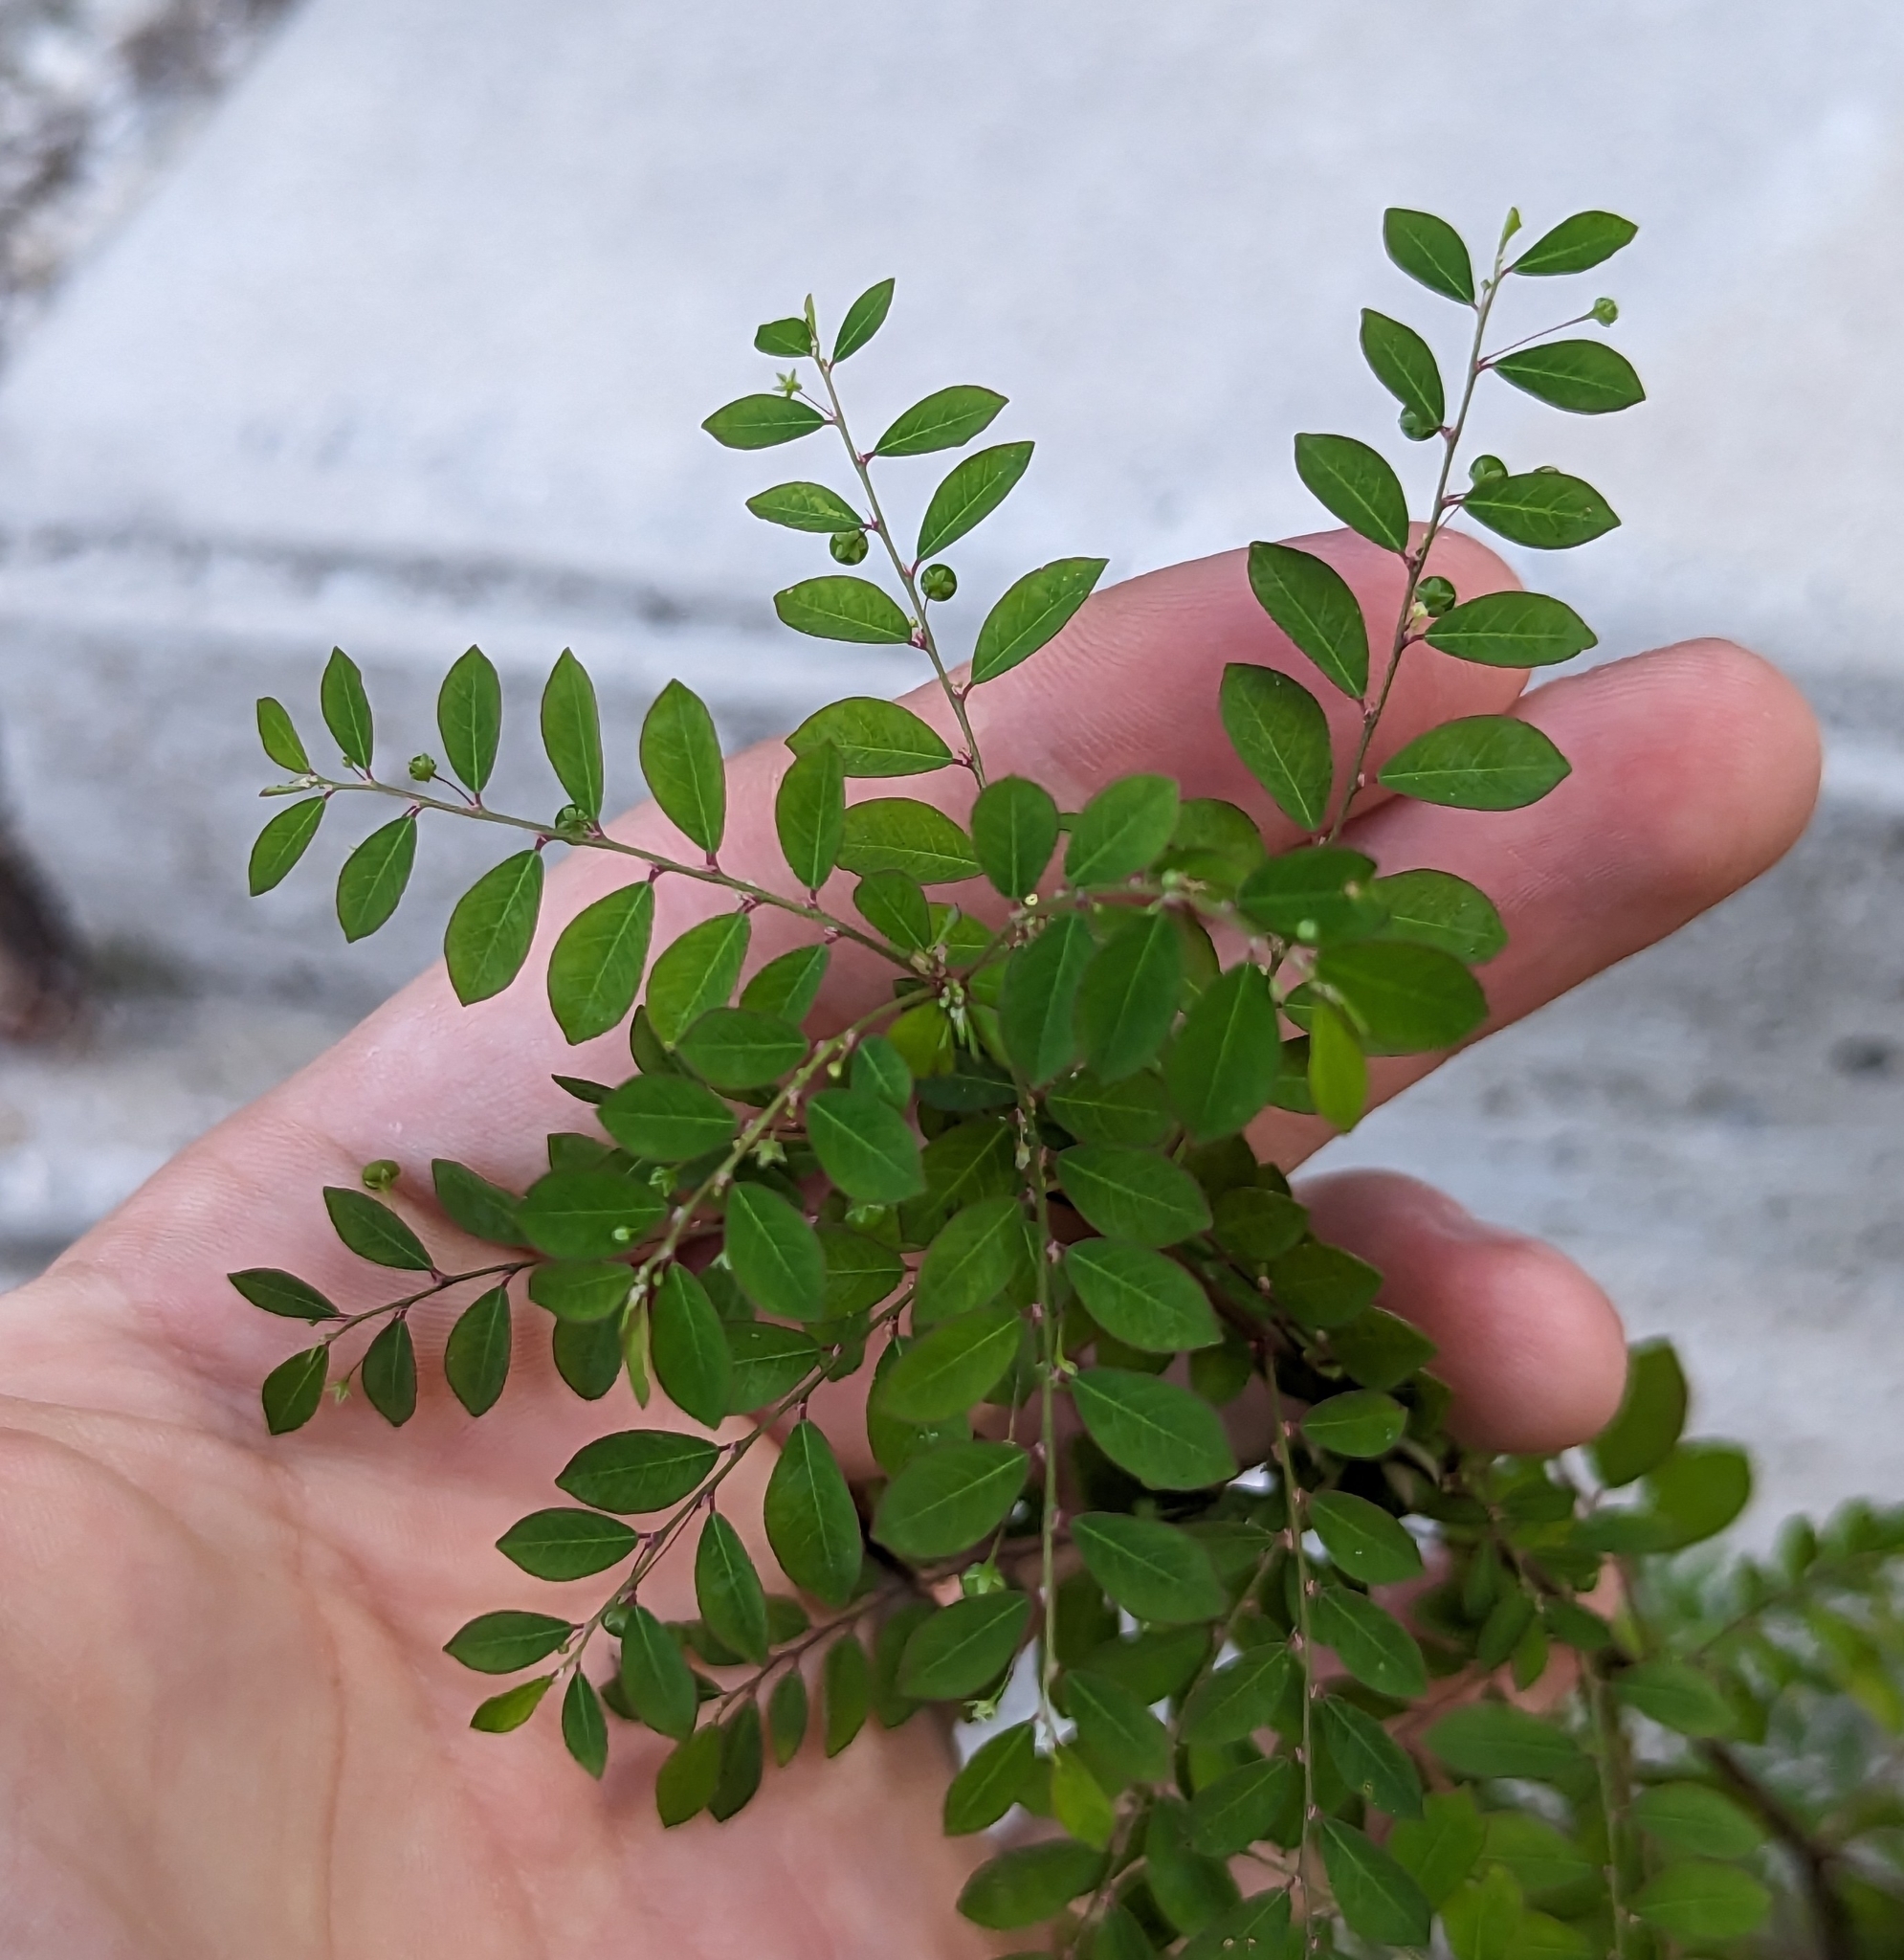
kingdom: Plantae
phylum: Tracheophyta
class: Magnoliopsida
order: Malpighiales
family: Phyllanthaceae
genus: Phyllanthus
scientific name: Phyllanthus tenellus
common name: Mascarene island leaf-flower
